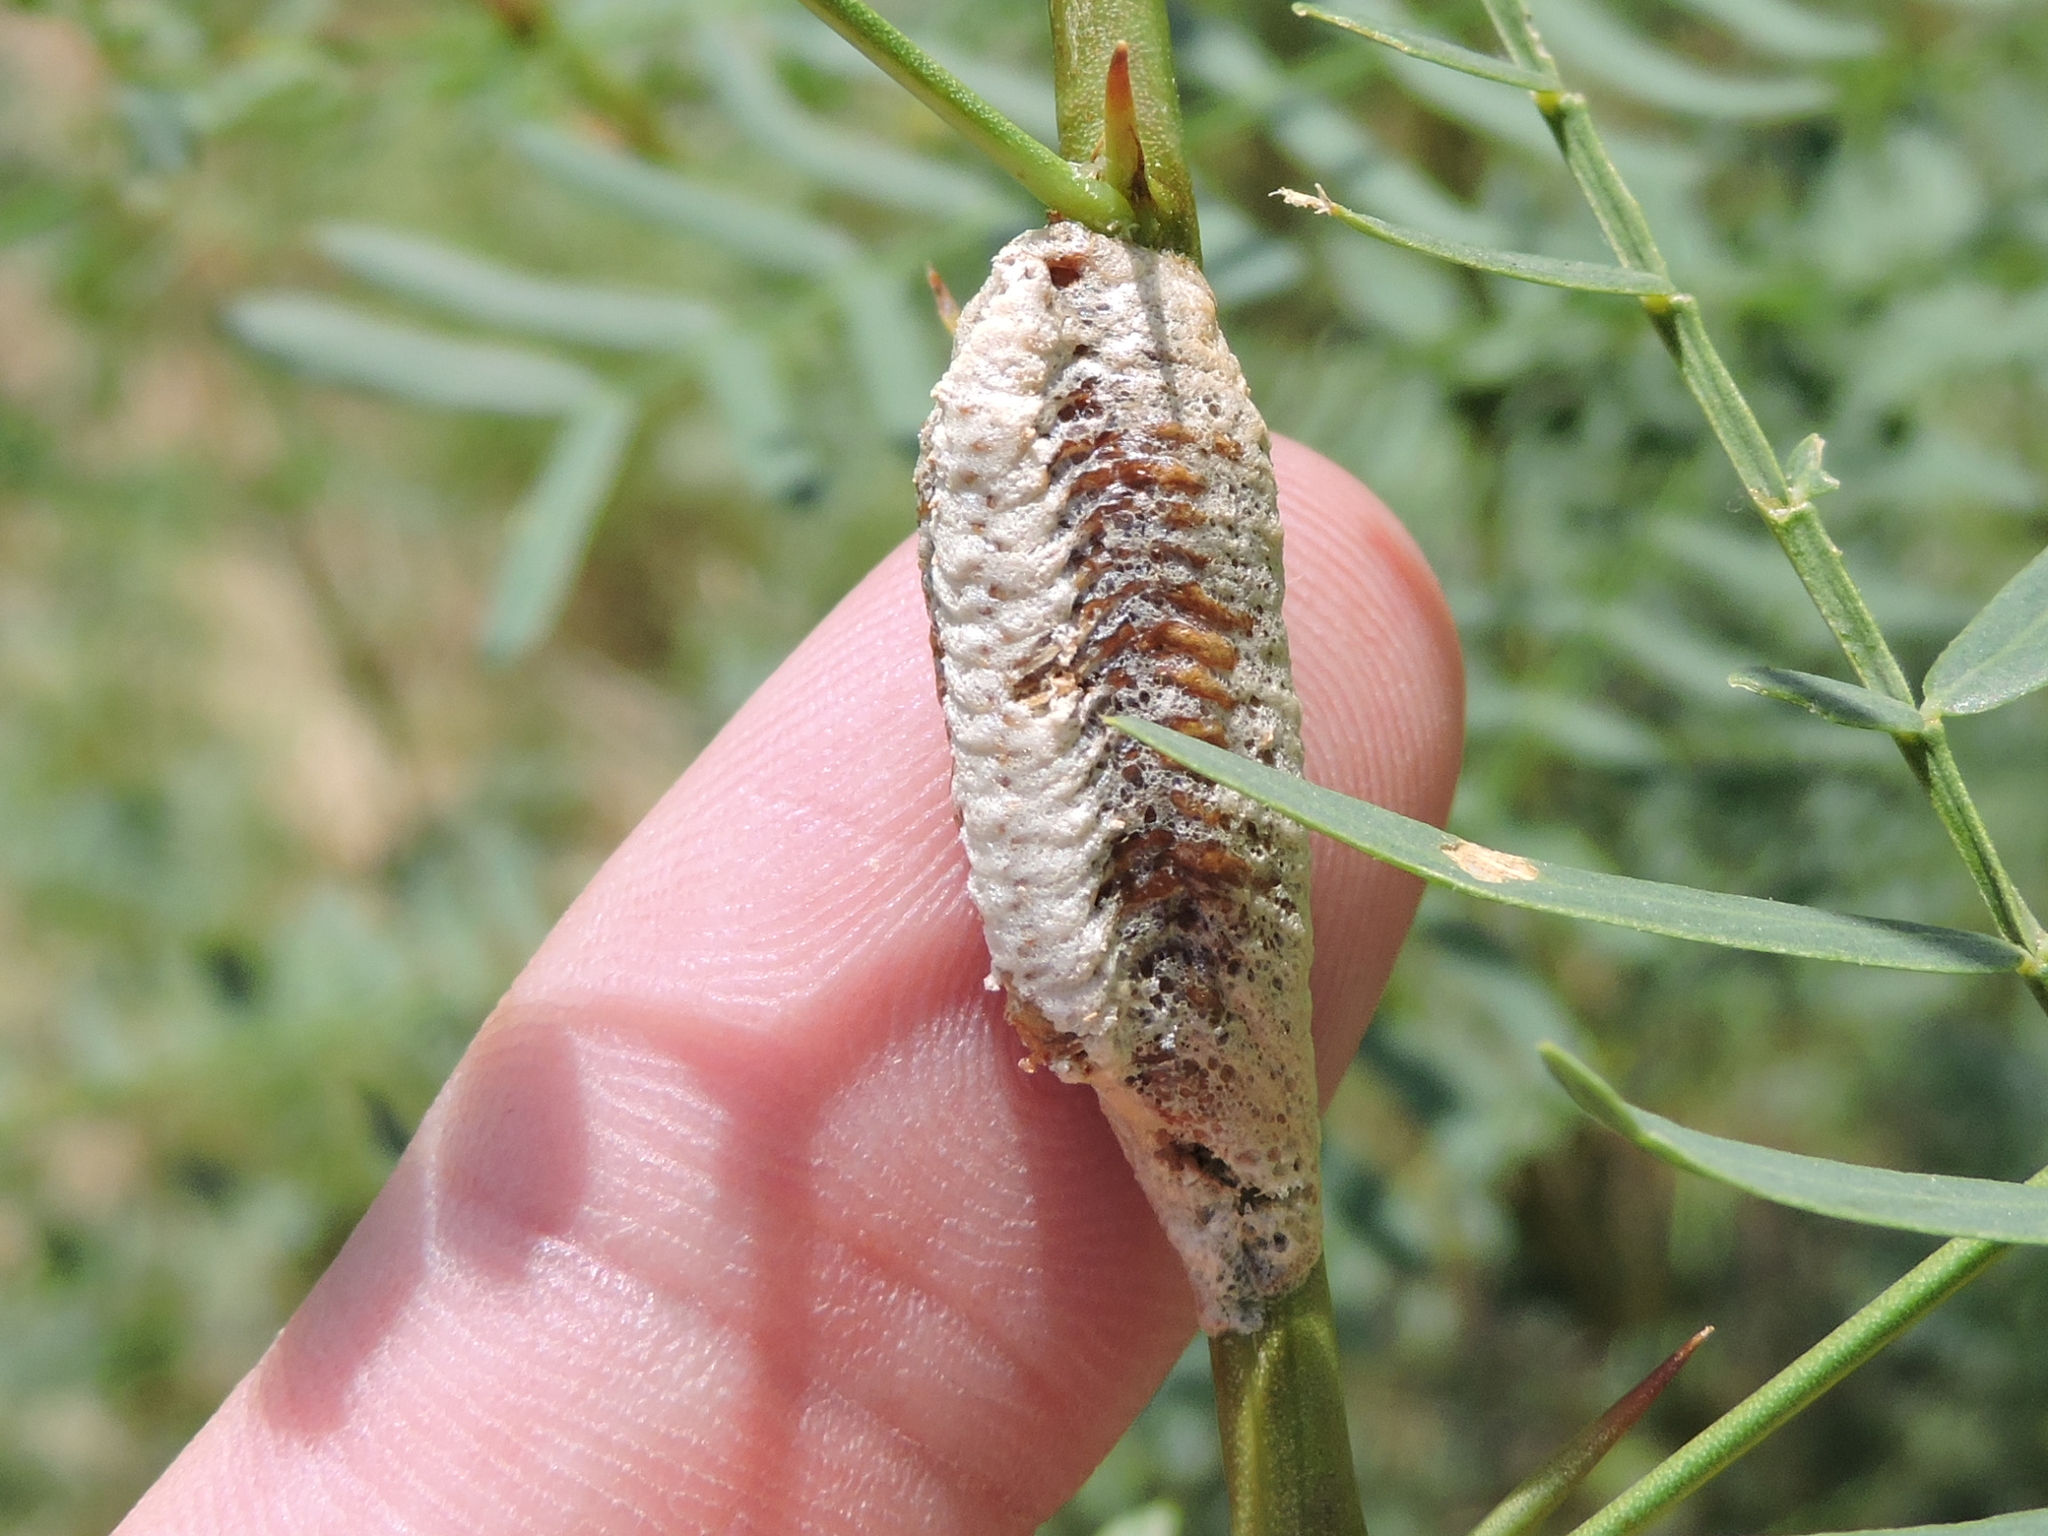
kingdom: Animalia
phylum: Arthropoda
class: Insecta
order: Mantodea
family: Mantidae
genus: Stagmomantis
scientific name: Stagmomantis carolina
